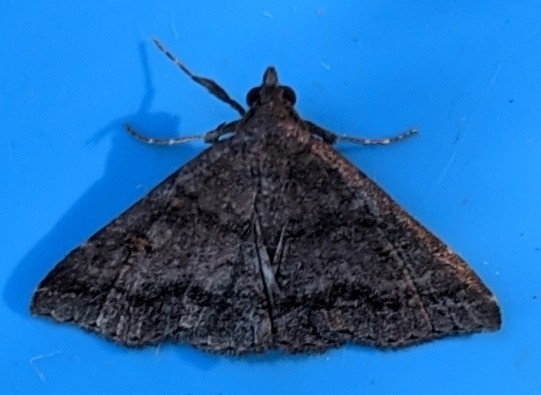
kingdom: Animalia
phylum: Arthropoda
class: Insecta
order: Lepidoptera
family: Erebidae
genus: Renia
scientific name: Renia sobrialis
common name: Sober renia moth
